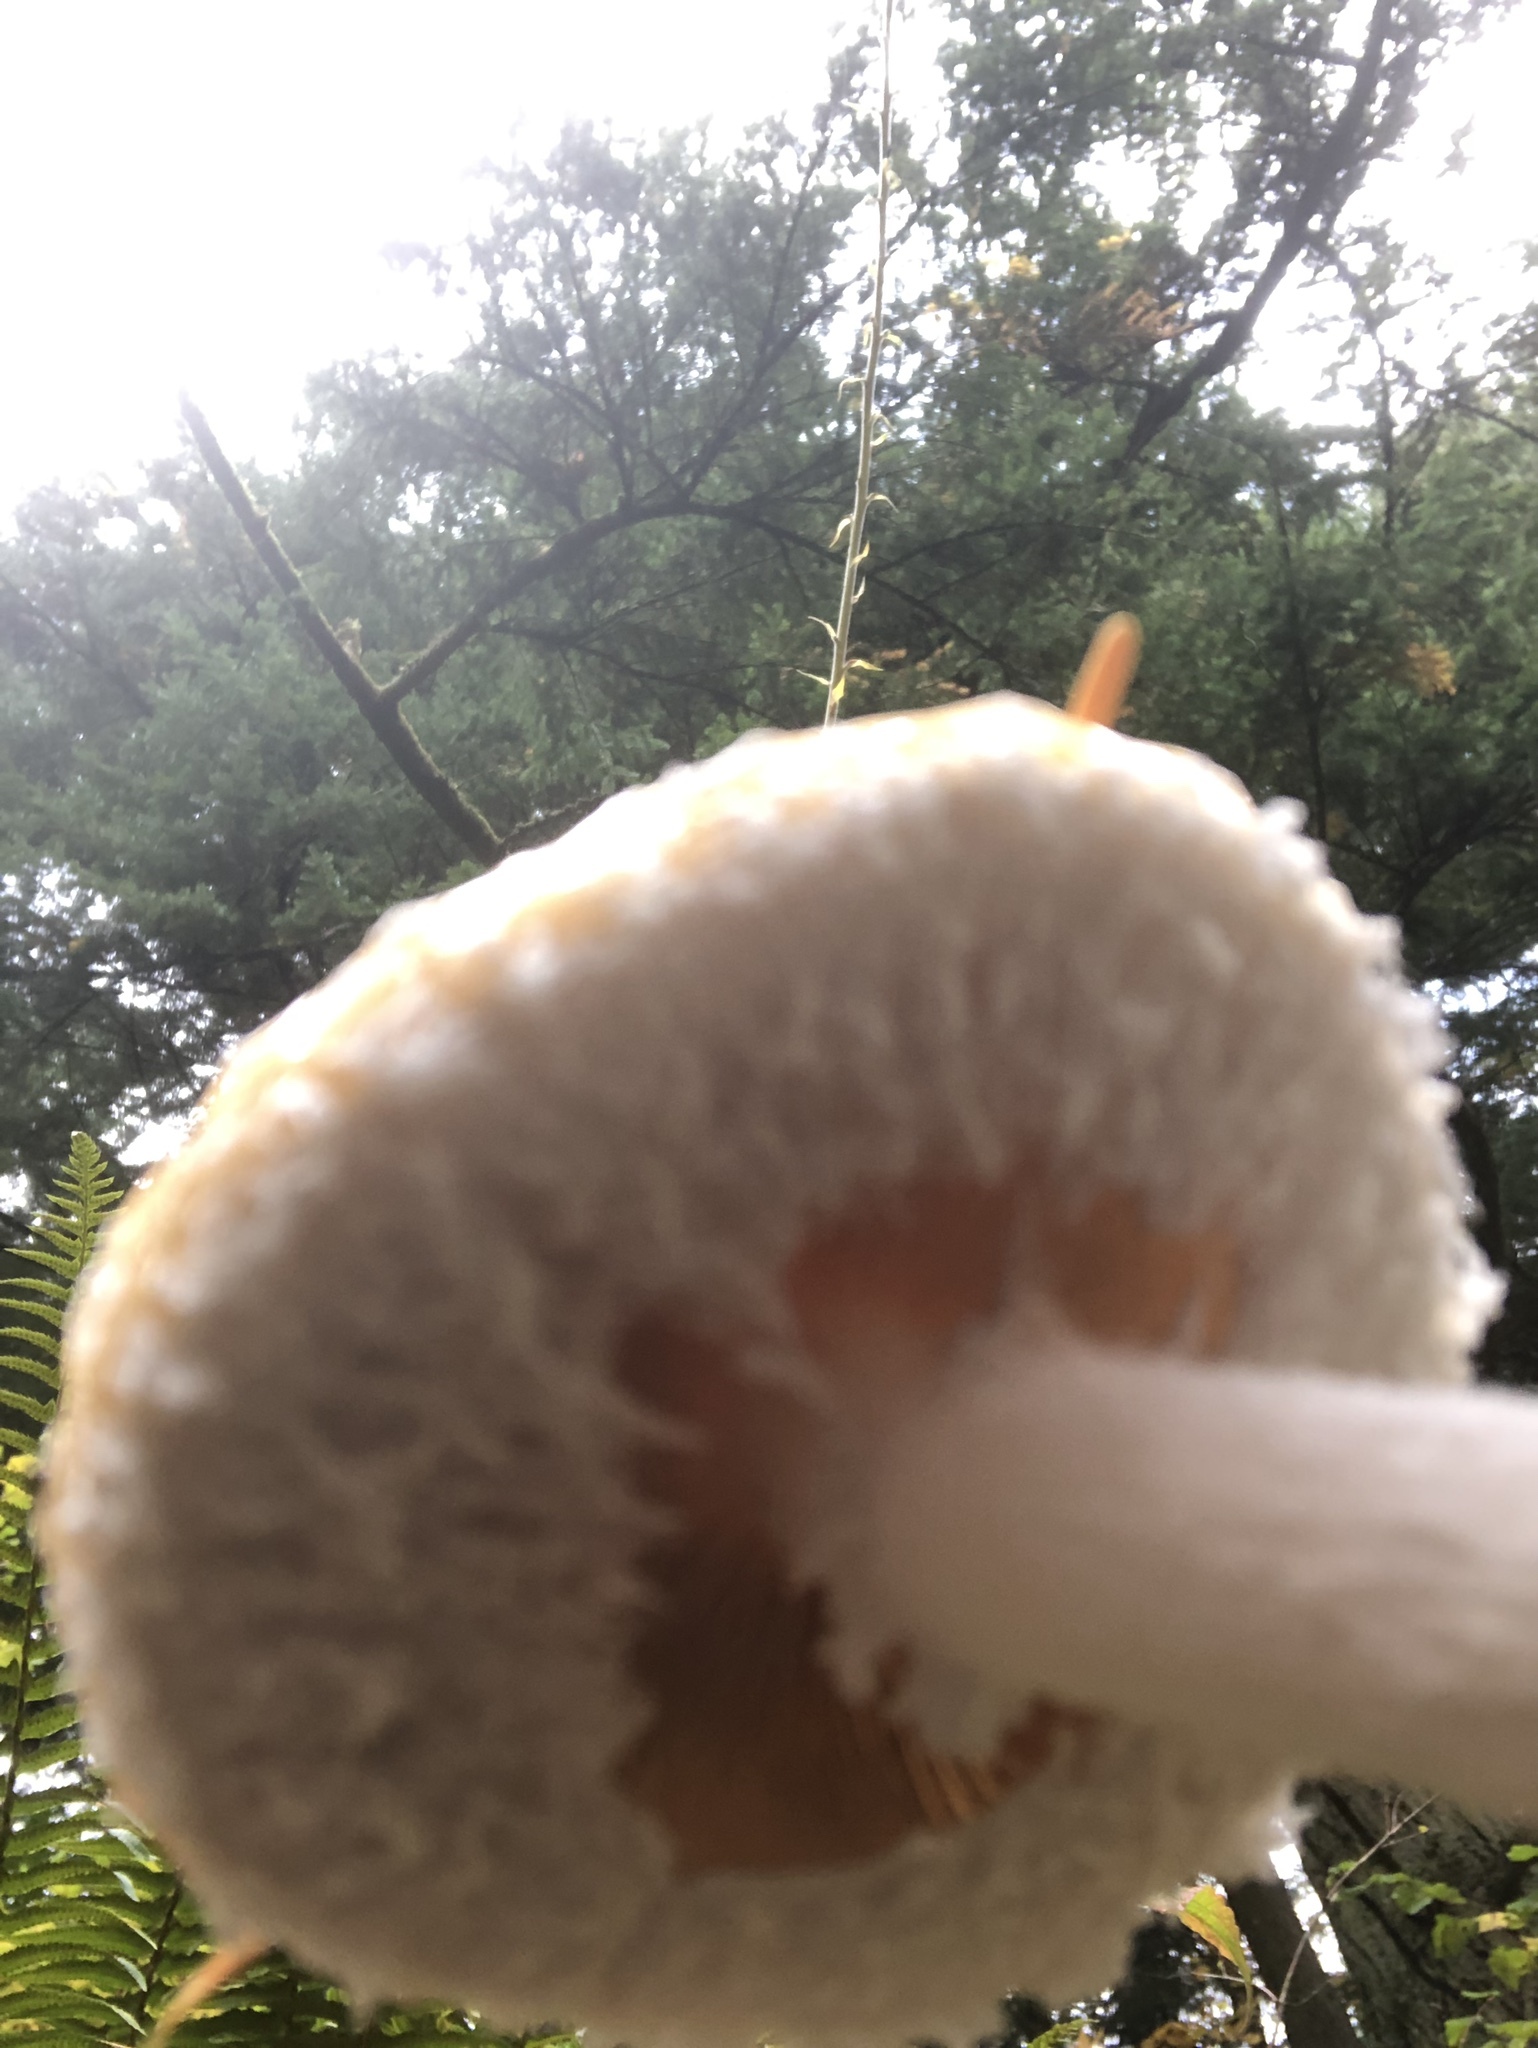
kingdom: Fungi
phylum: Basidiomycota
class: Agaricomycetes
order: Agaricales
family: Strophariaceae
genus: Stropharia
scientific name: Stropharia ambigua
